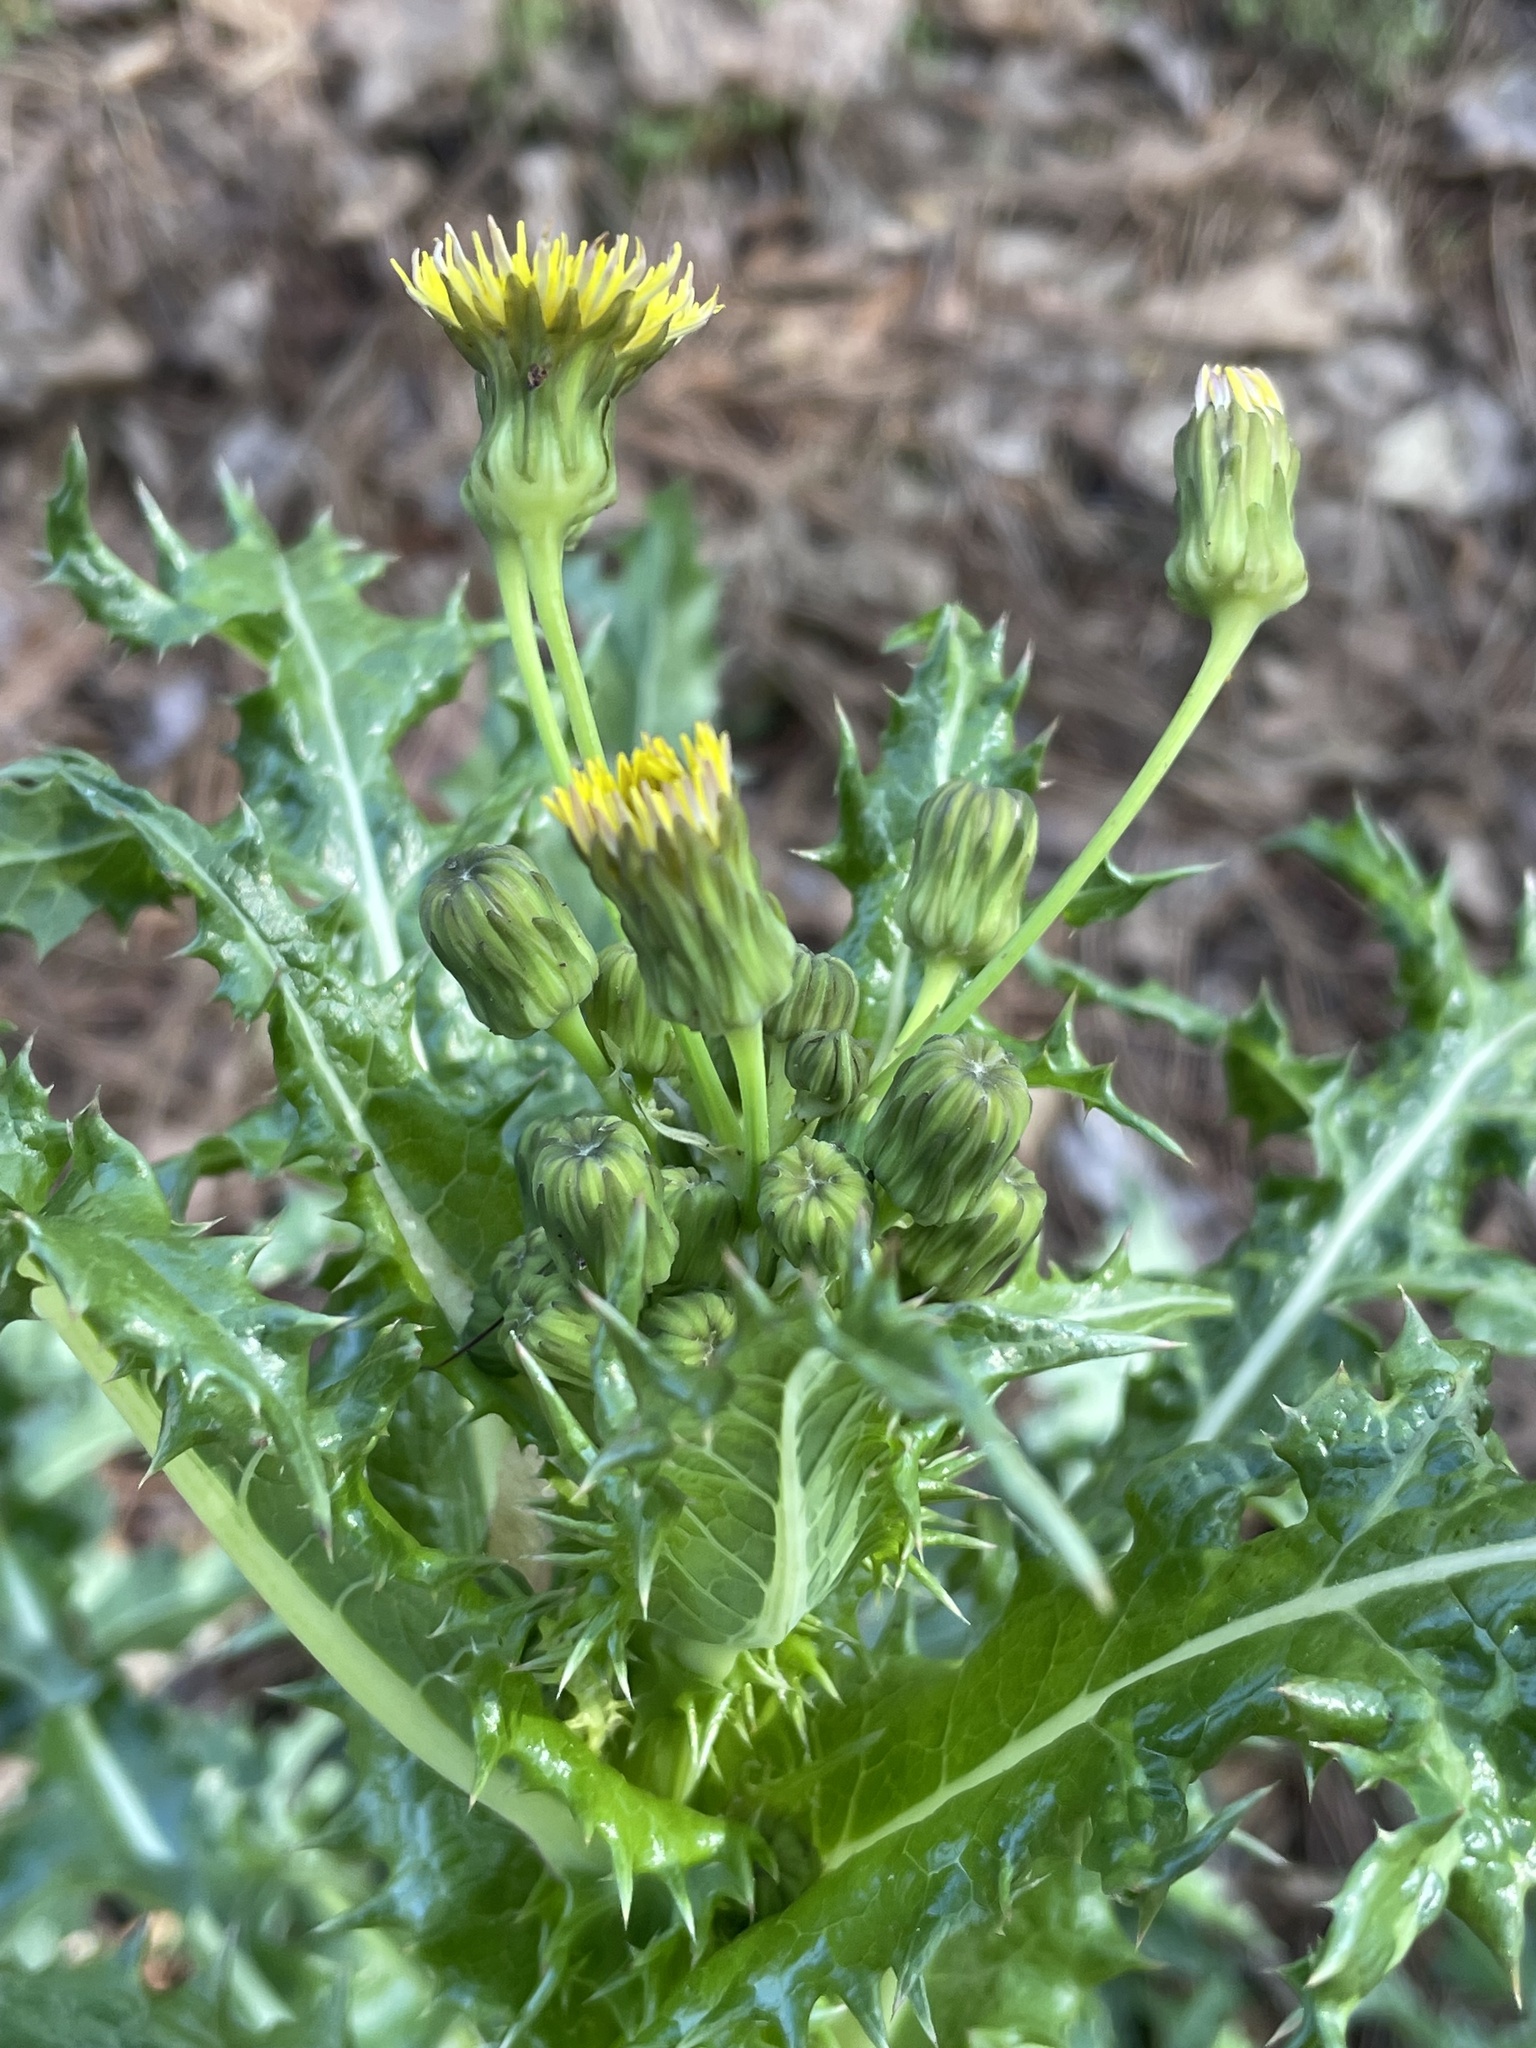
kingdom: Plantae
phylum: Tracheophyta
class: Magnoliopsida
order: Asterales
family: Asteraceae
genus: Sonchus
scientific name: Sonchus asper
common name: Prickly sow-thistle
